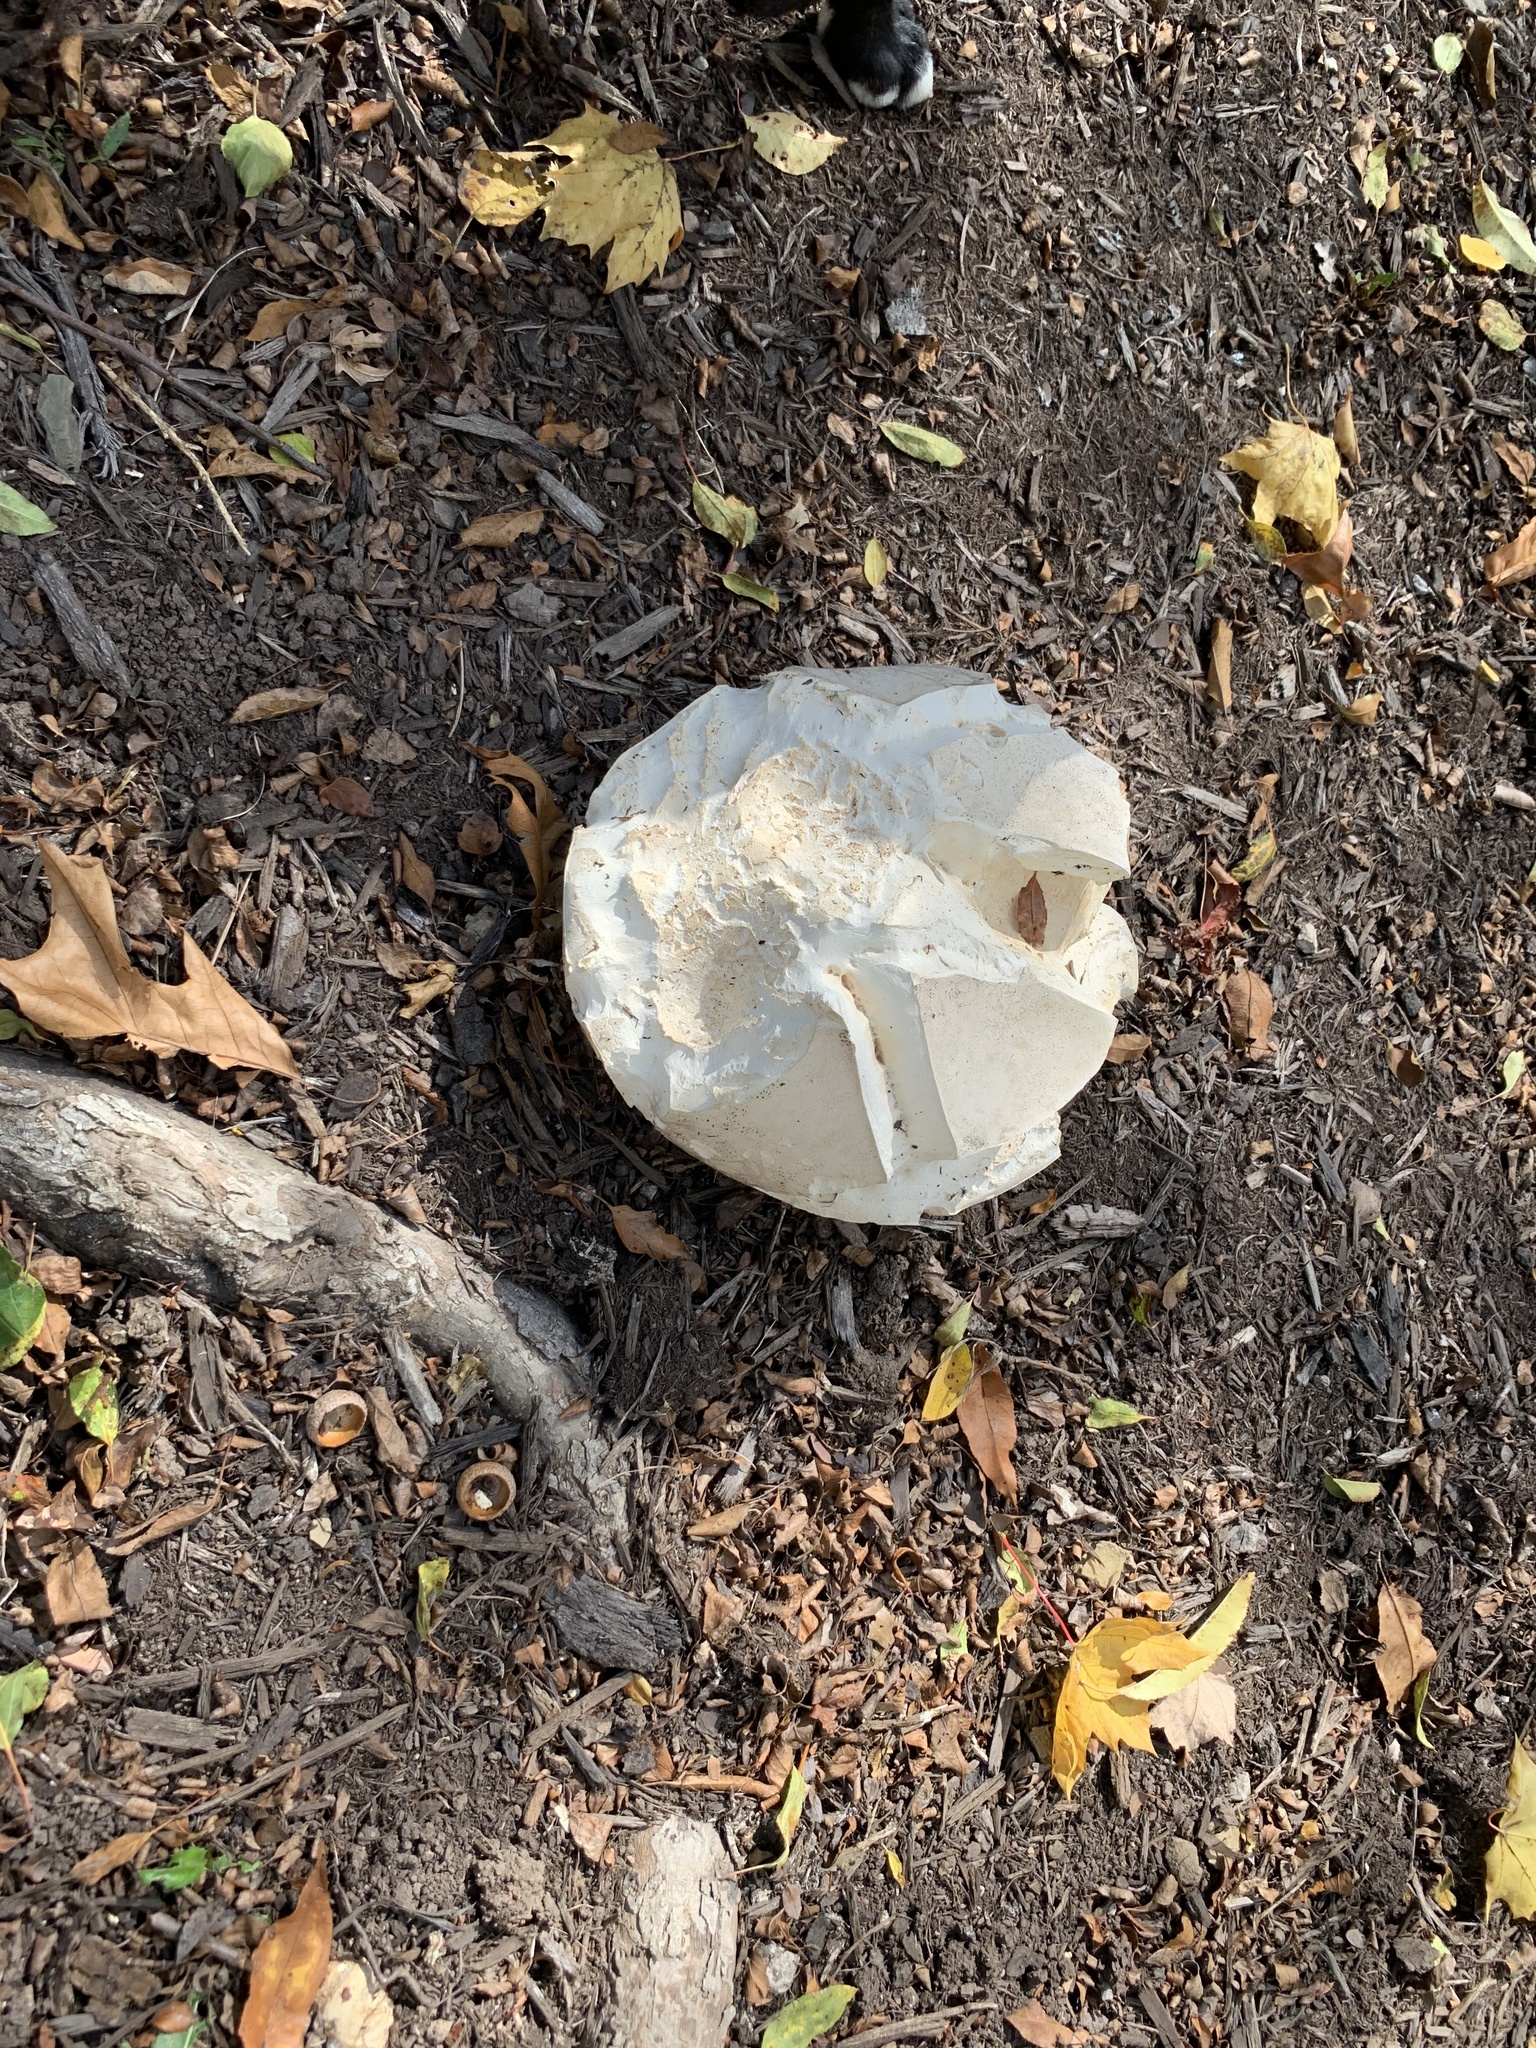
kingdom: Fungi
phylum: Basidiomycota
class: Agaricomycetes
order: Agaricales
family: Lycoperdaceae
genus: Calvatia
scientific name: Calvatia gigantea
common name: Giant puffball
